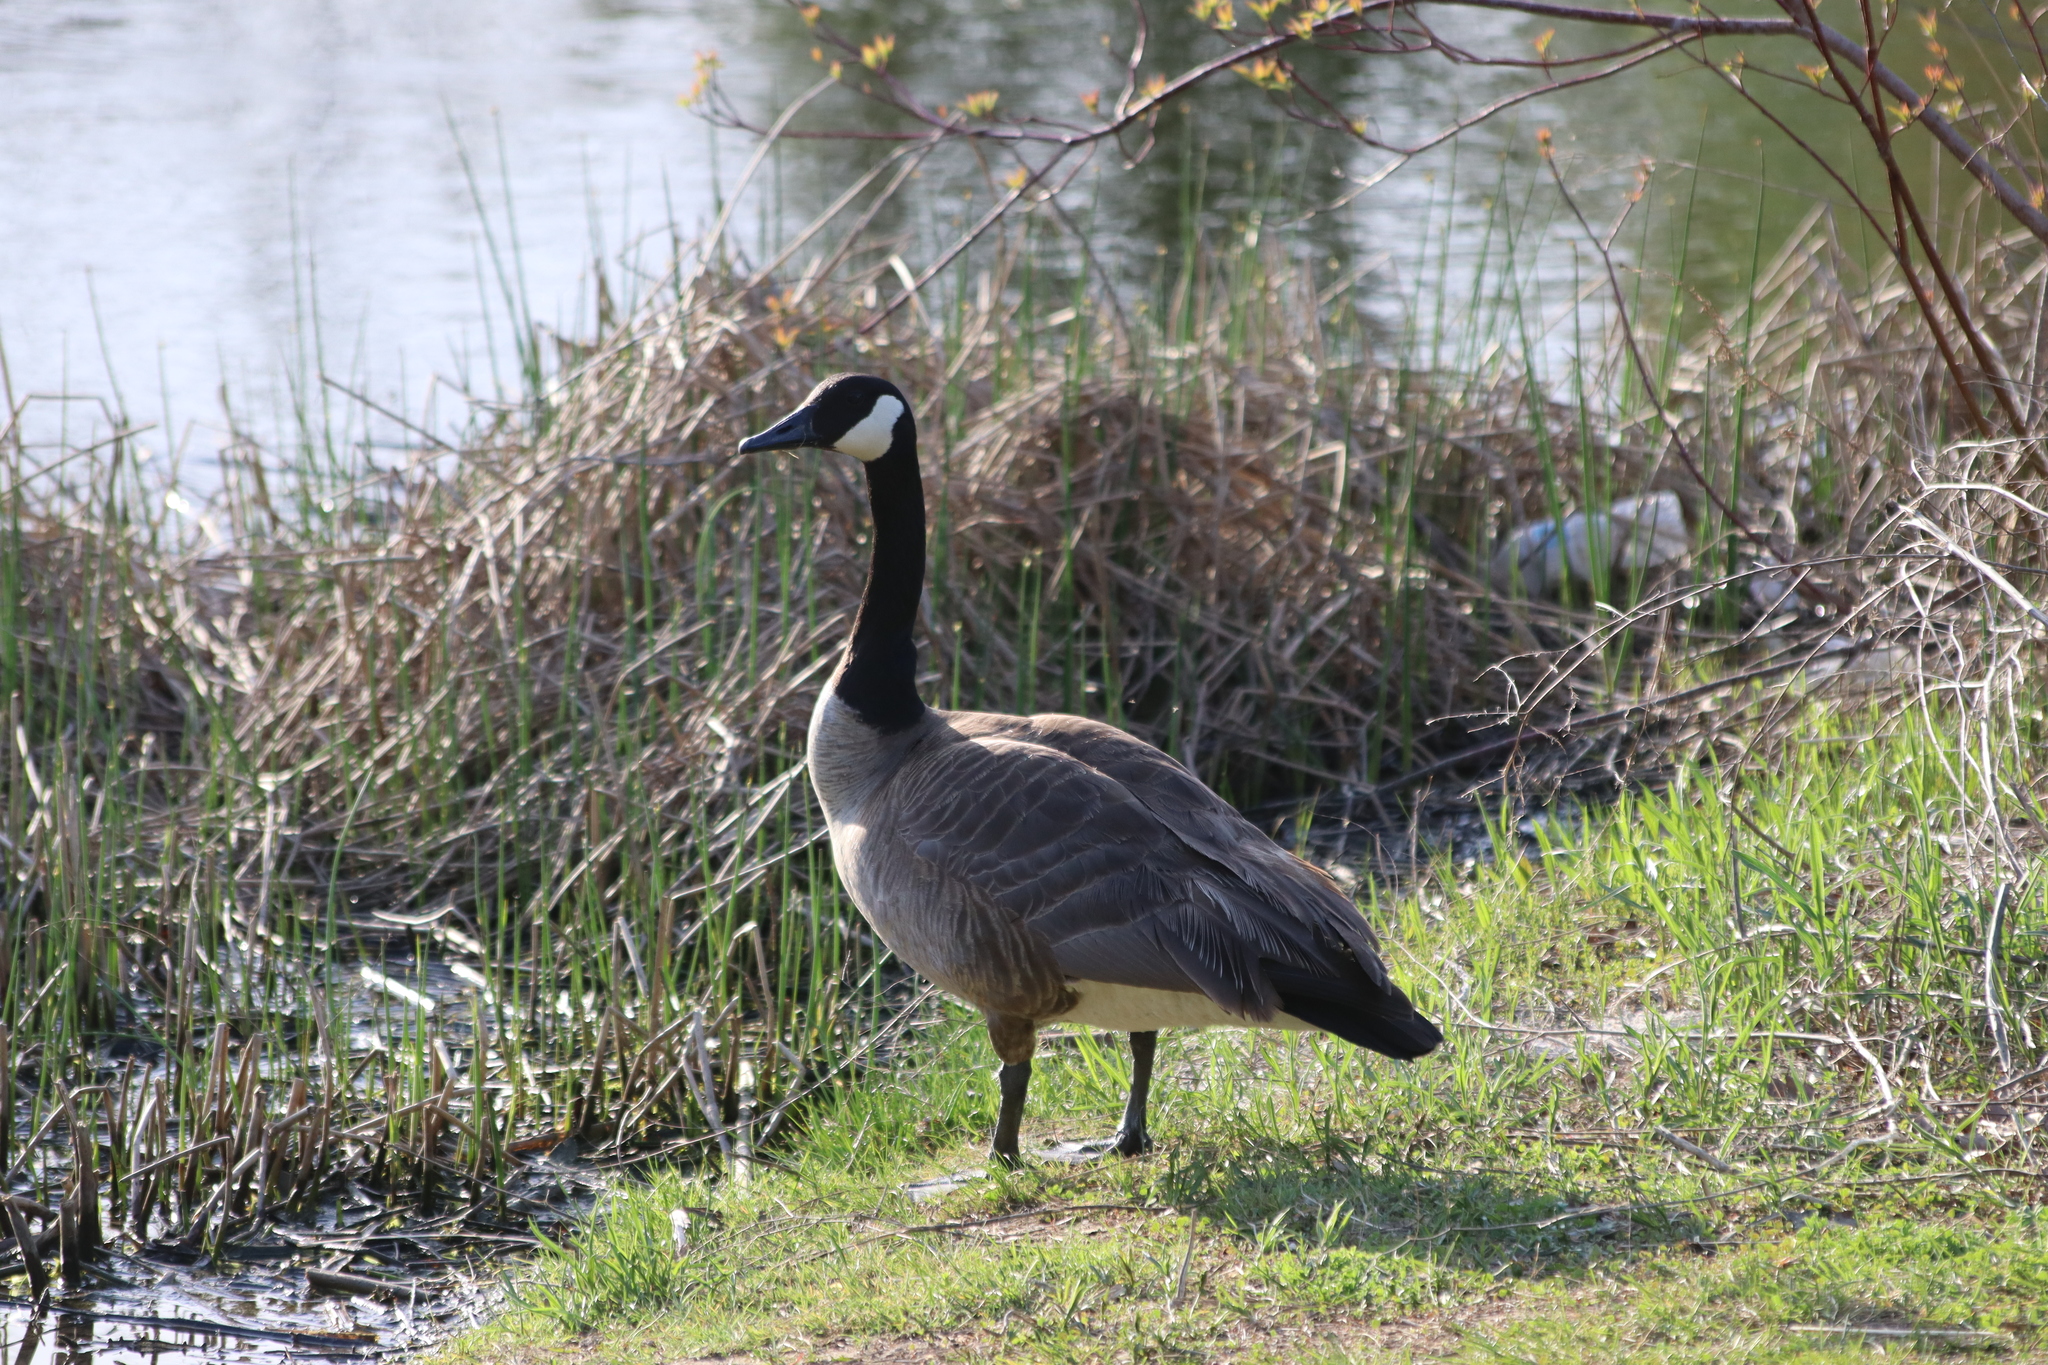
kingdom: Animalia
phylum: Chordata
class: Aves
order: Anseriformes
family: Anatidae
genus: Branta
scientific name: Branta canadensis
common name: Canada goose
